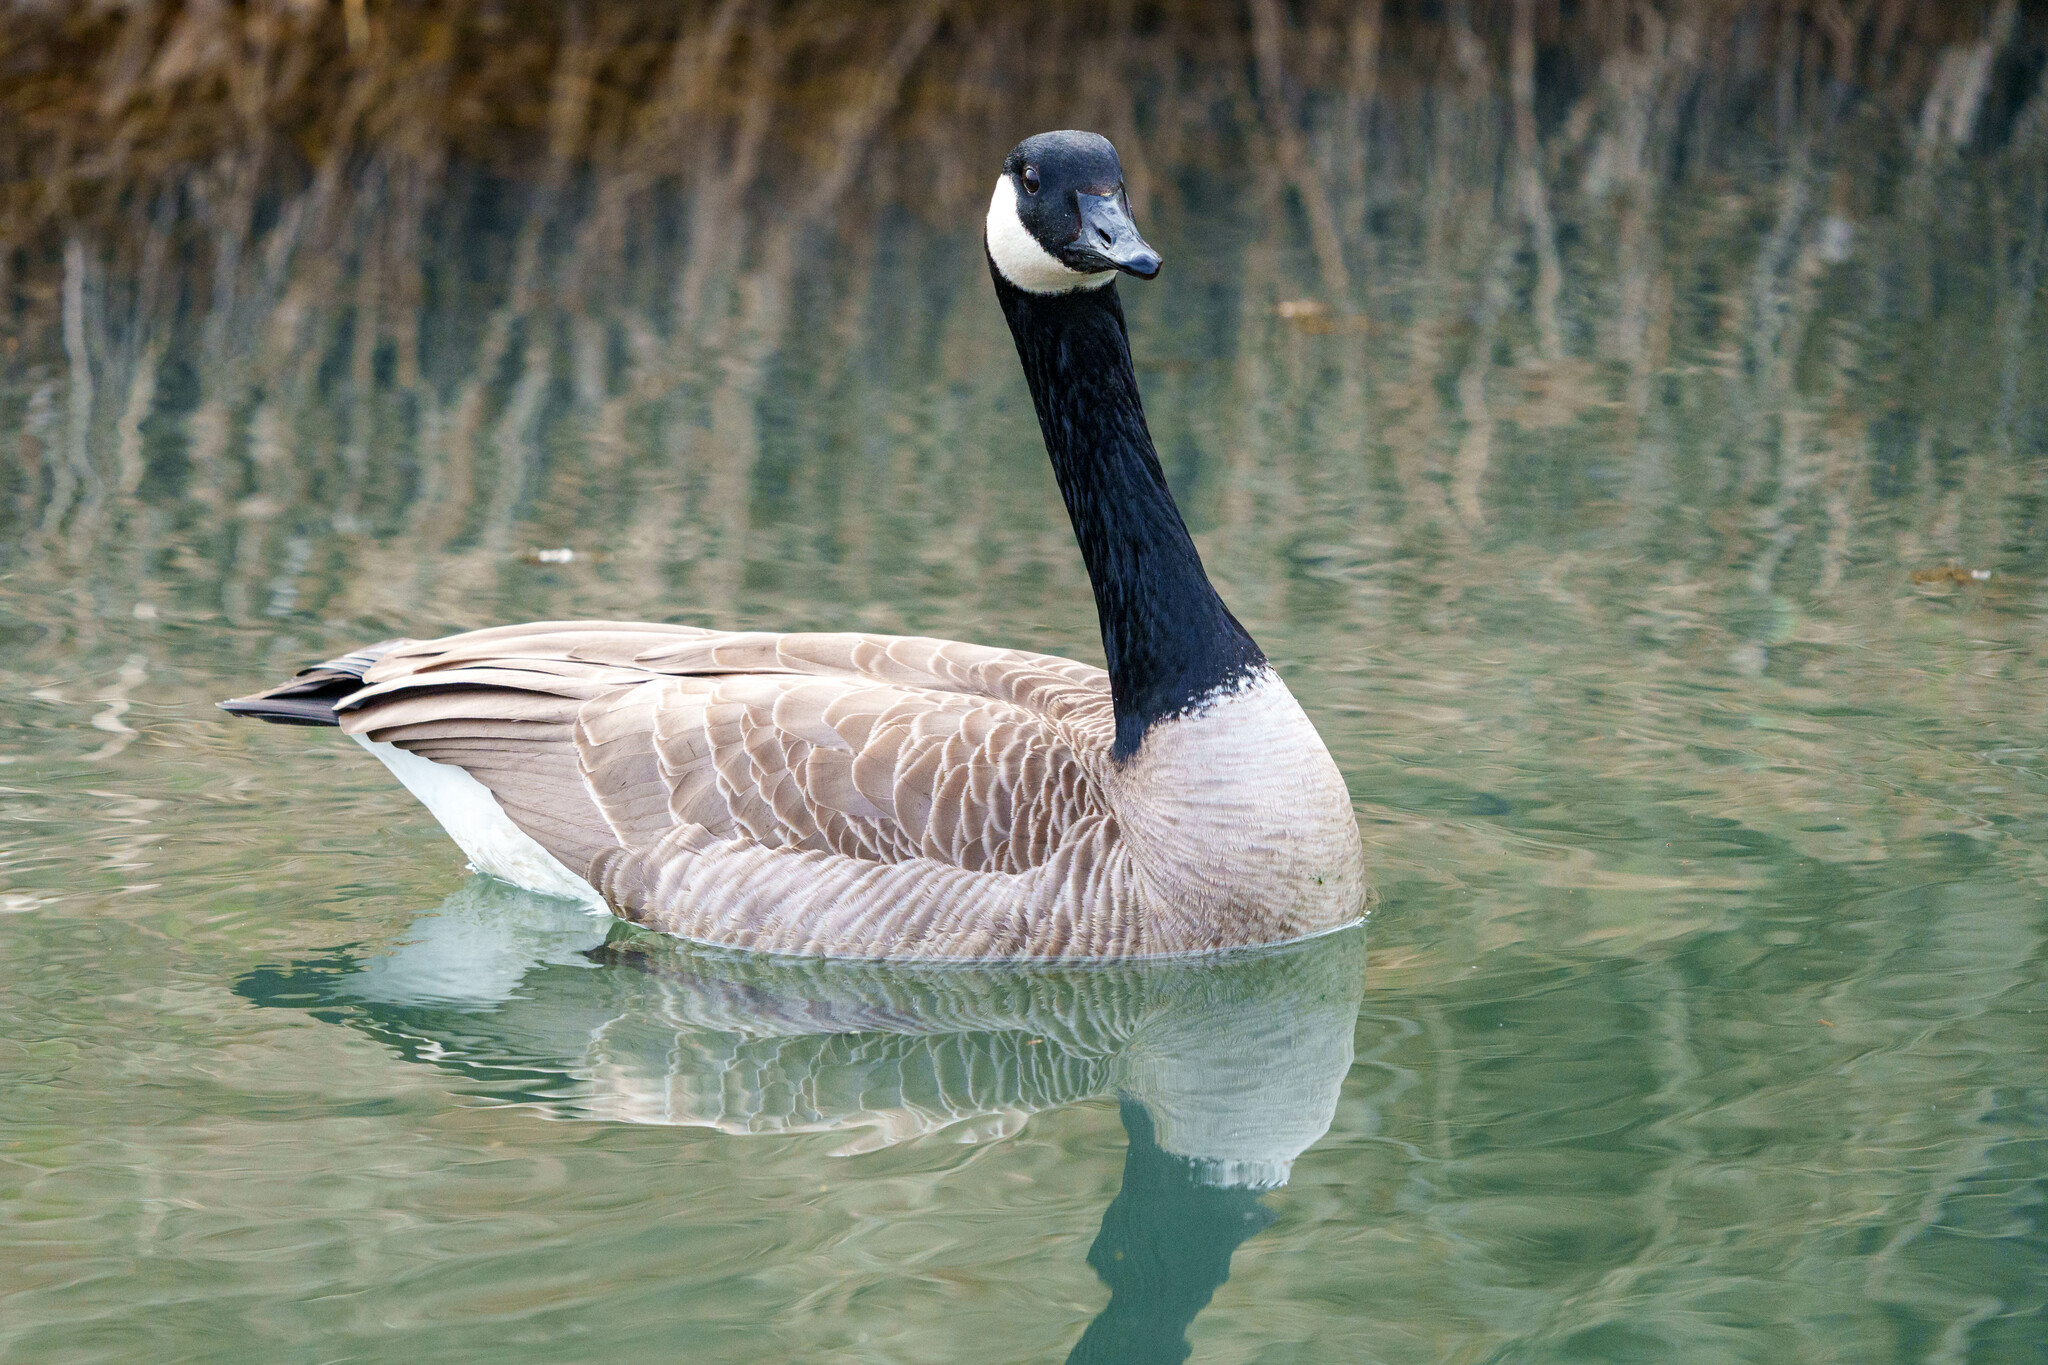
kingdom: Animalia
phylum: Chordata
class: Aves
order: Anseriformes
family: Anatidae
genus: Branta
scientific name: Branta canadensis
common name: Canada goose
